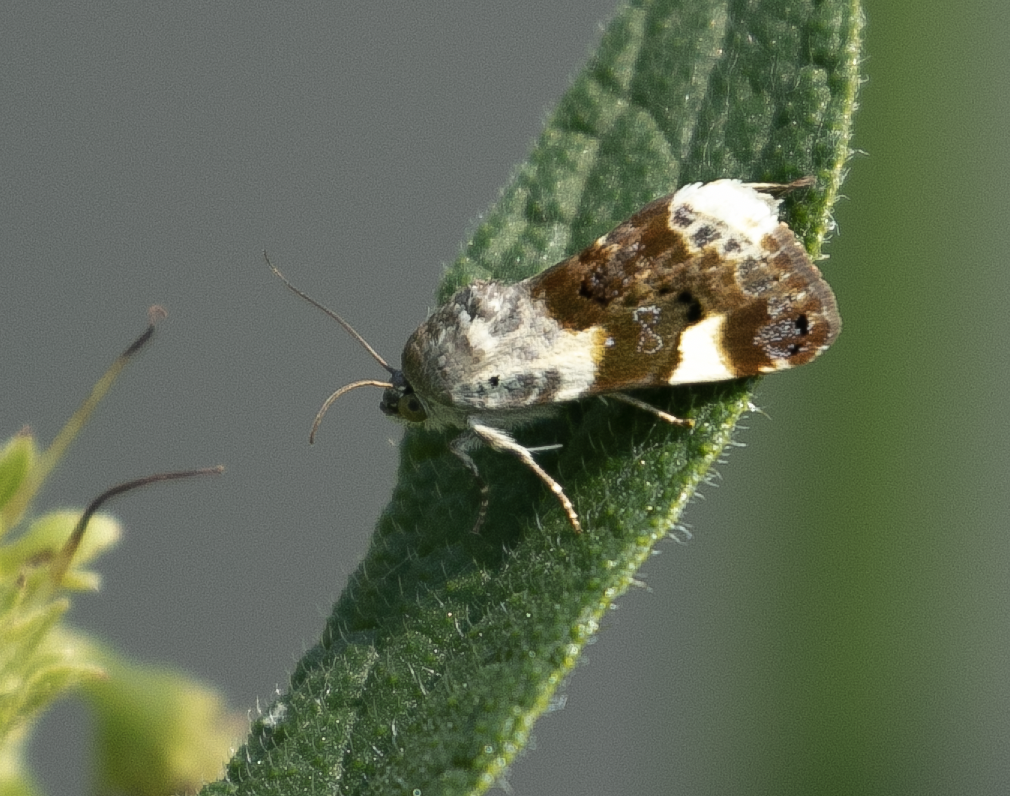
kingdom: Animalia
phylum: Arthropoda
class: Insecta
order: Lepidoptera
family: Noctuidae
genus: Acontia
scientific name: Acontia lucida
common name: Pale shoulder
